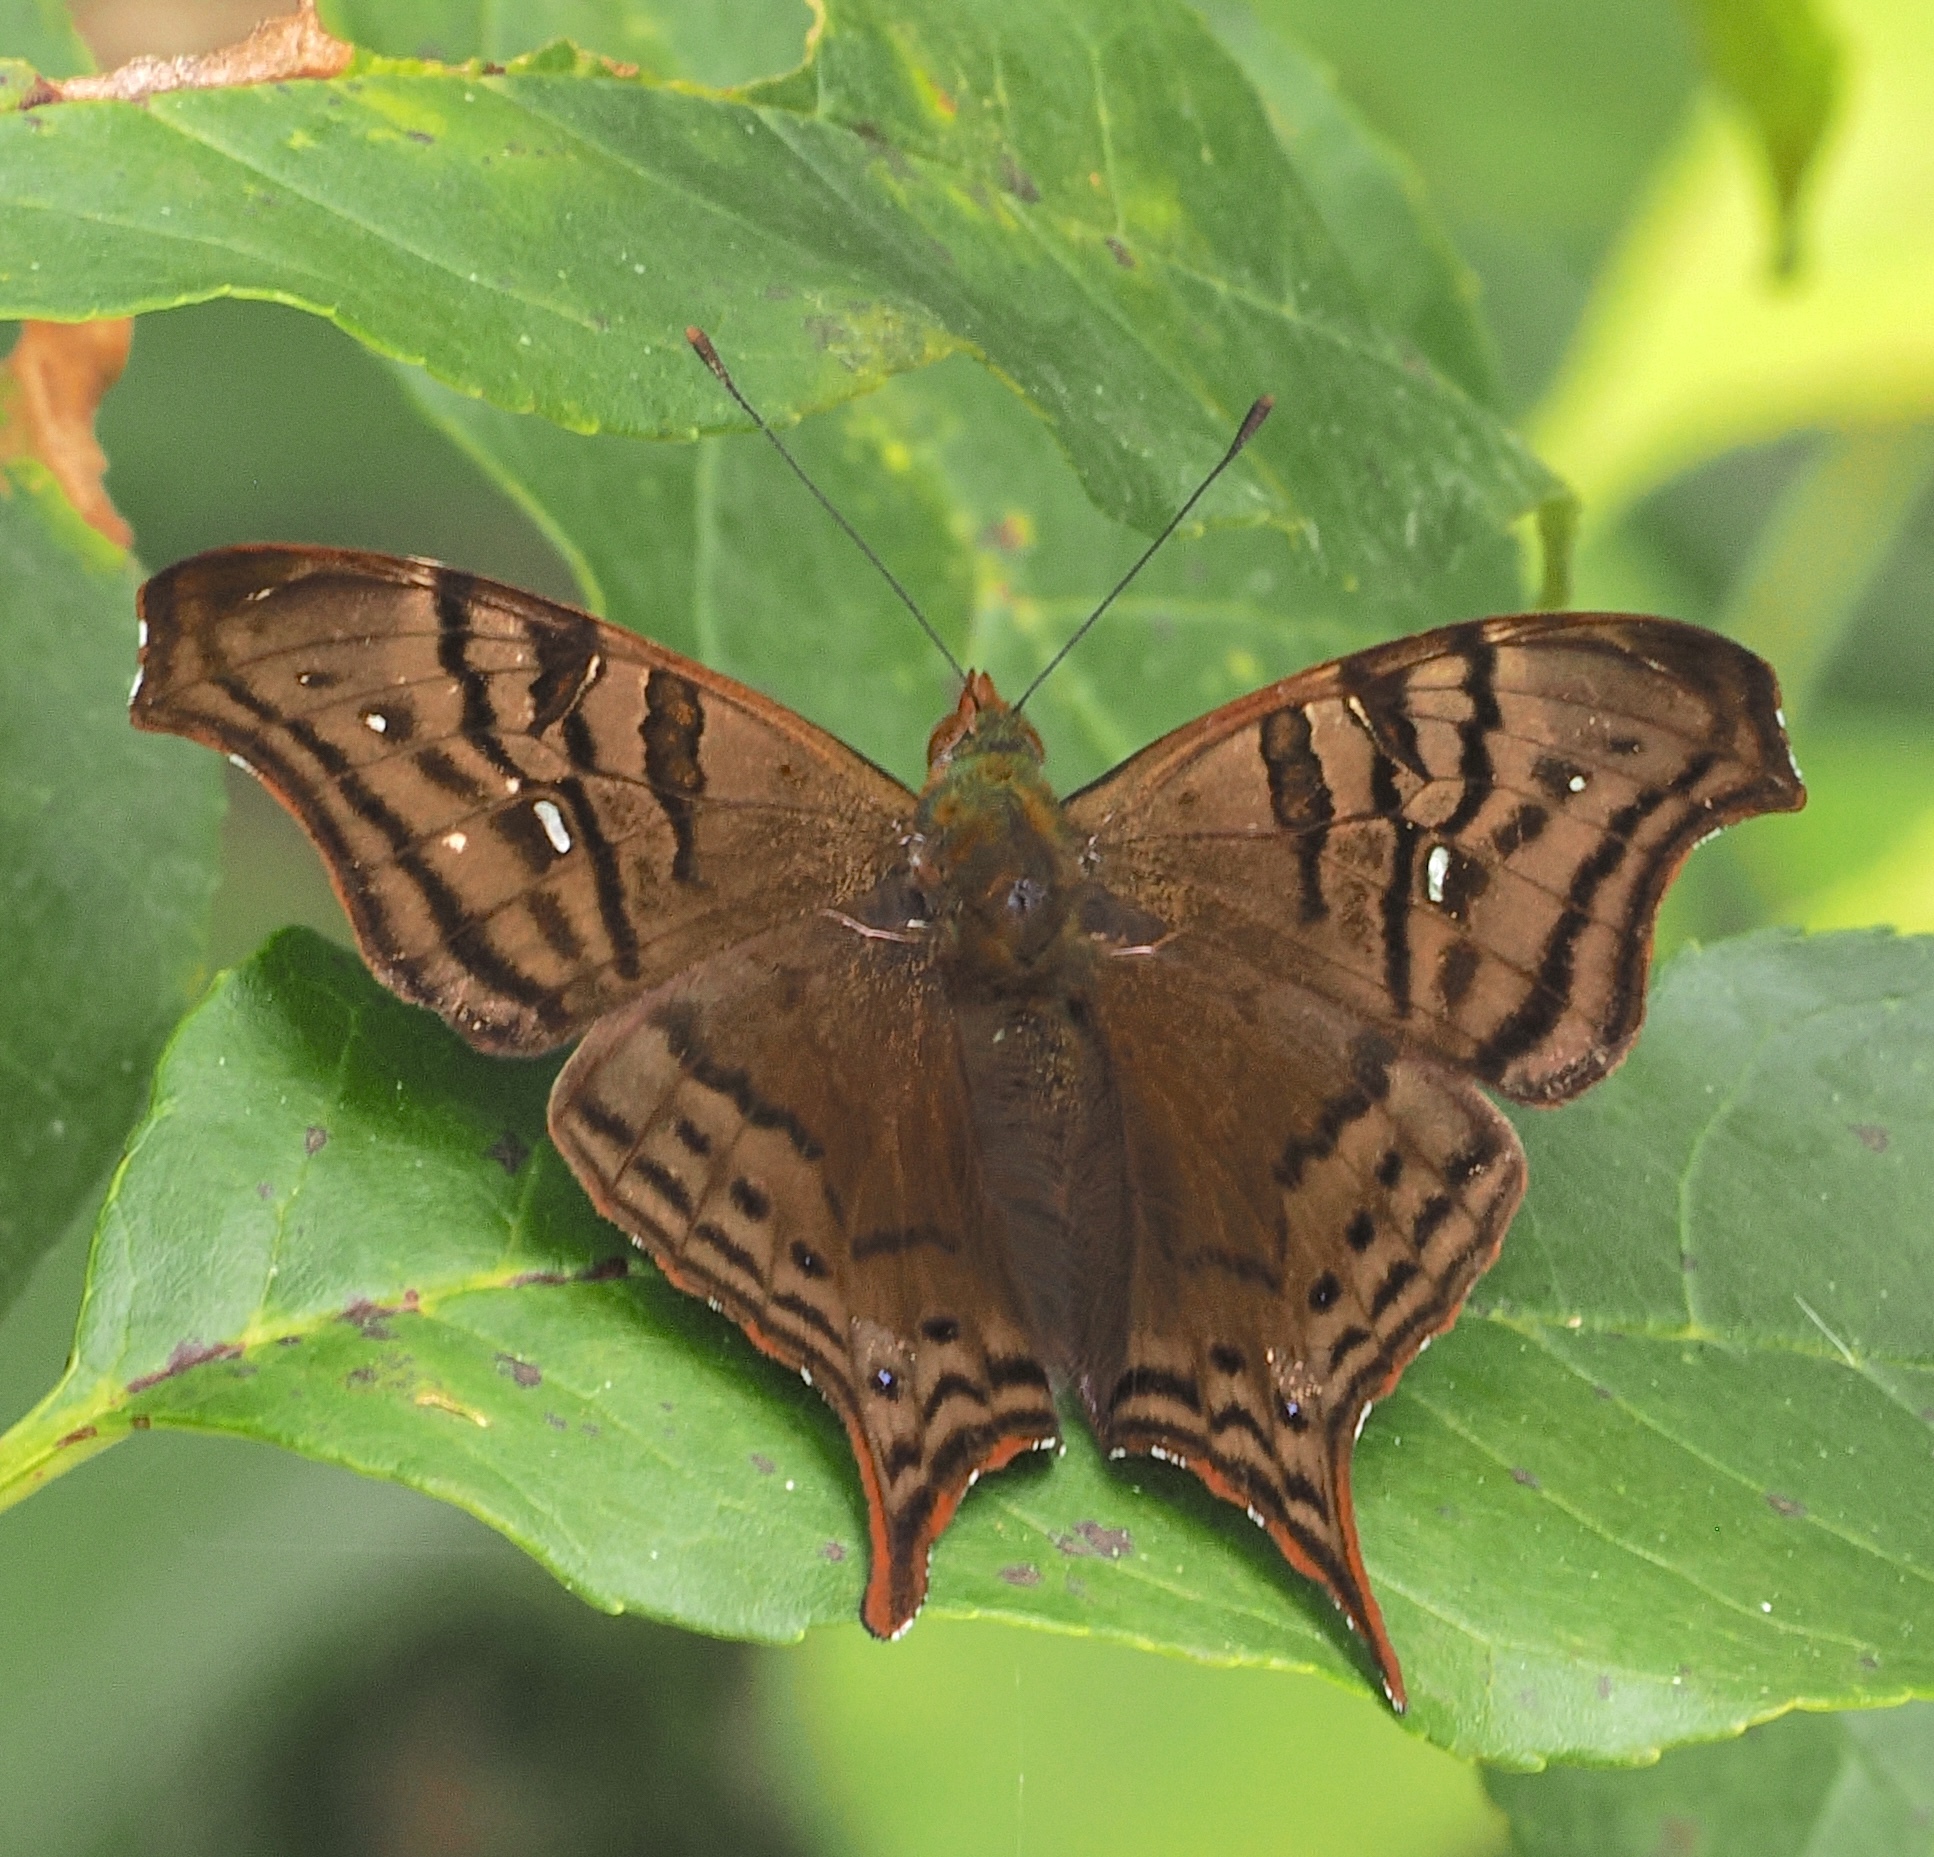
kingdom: Animalia
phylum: Arthropoda
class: Insecta
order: Lepidoptera
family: Nymphalidae
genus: Hypanartia
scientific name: Hypanartia dione
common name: Banded mapwing
